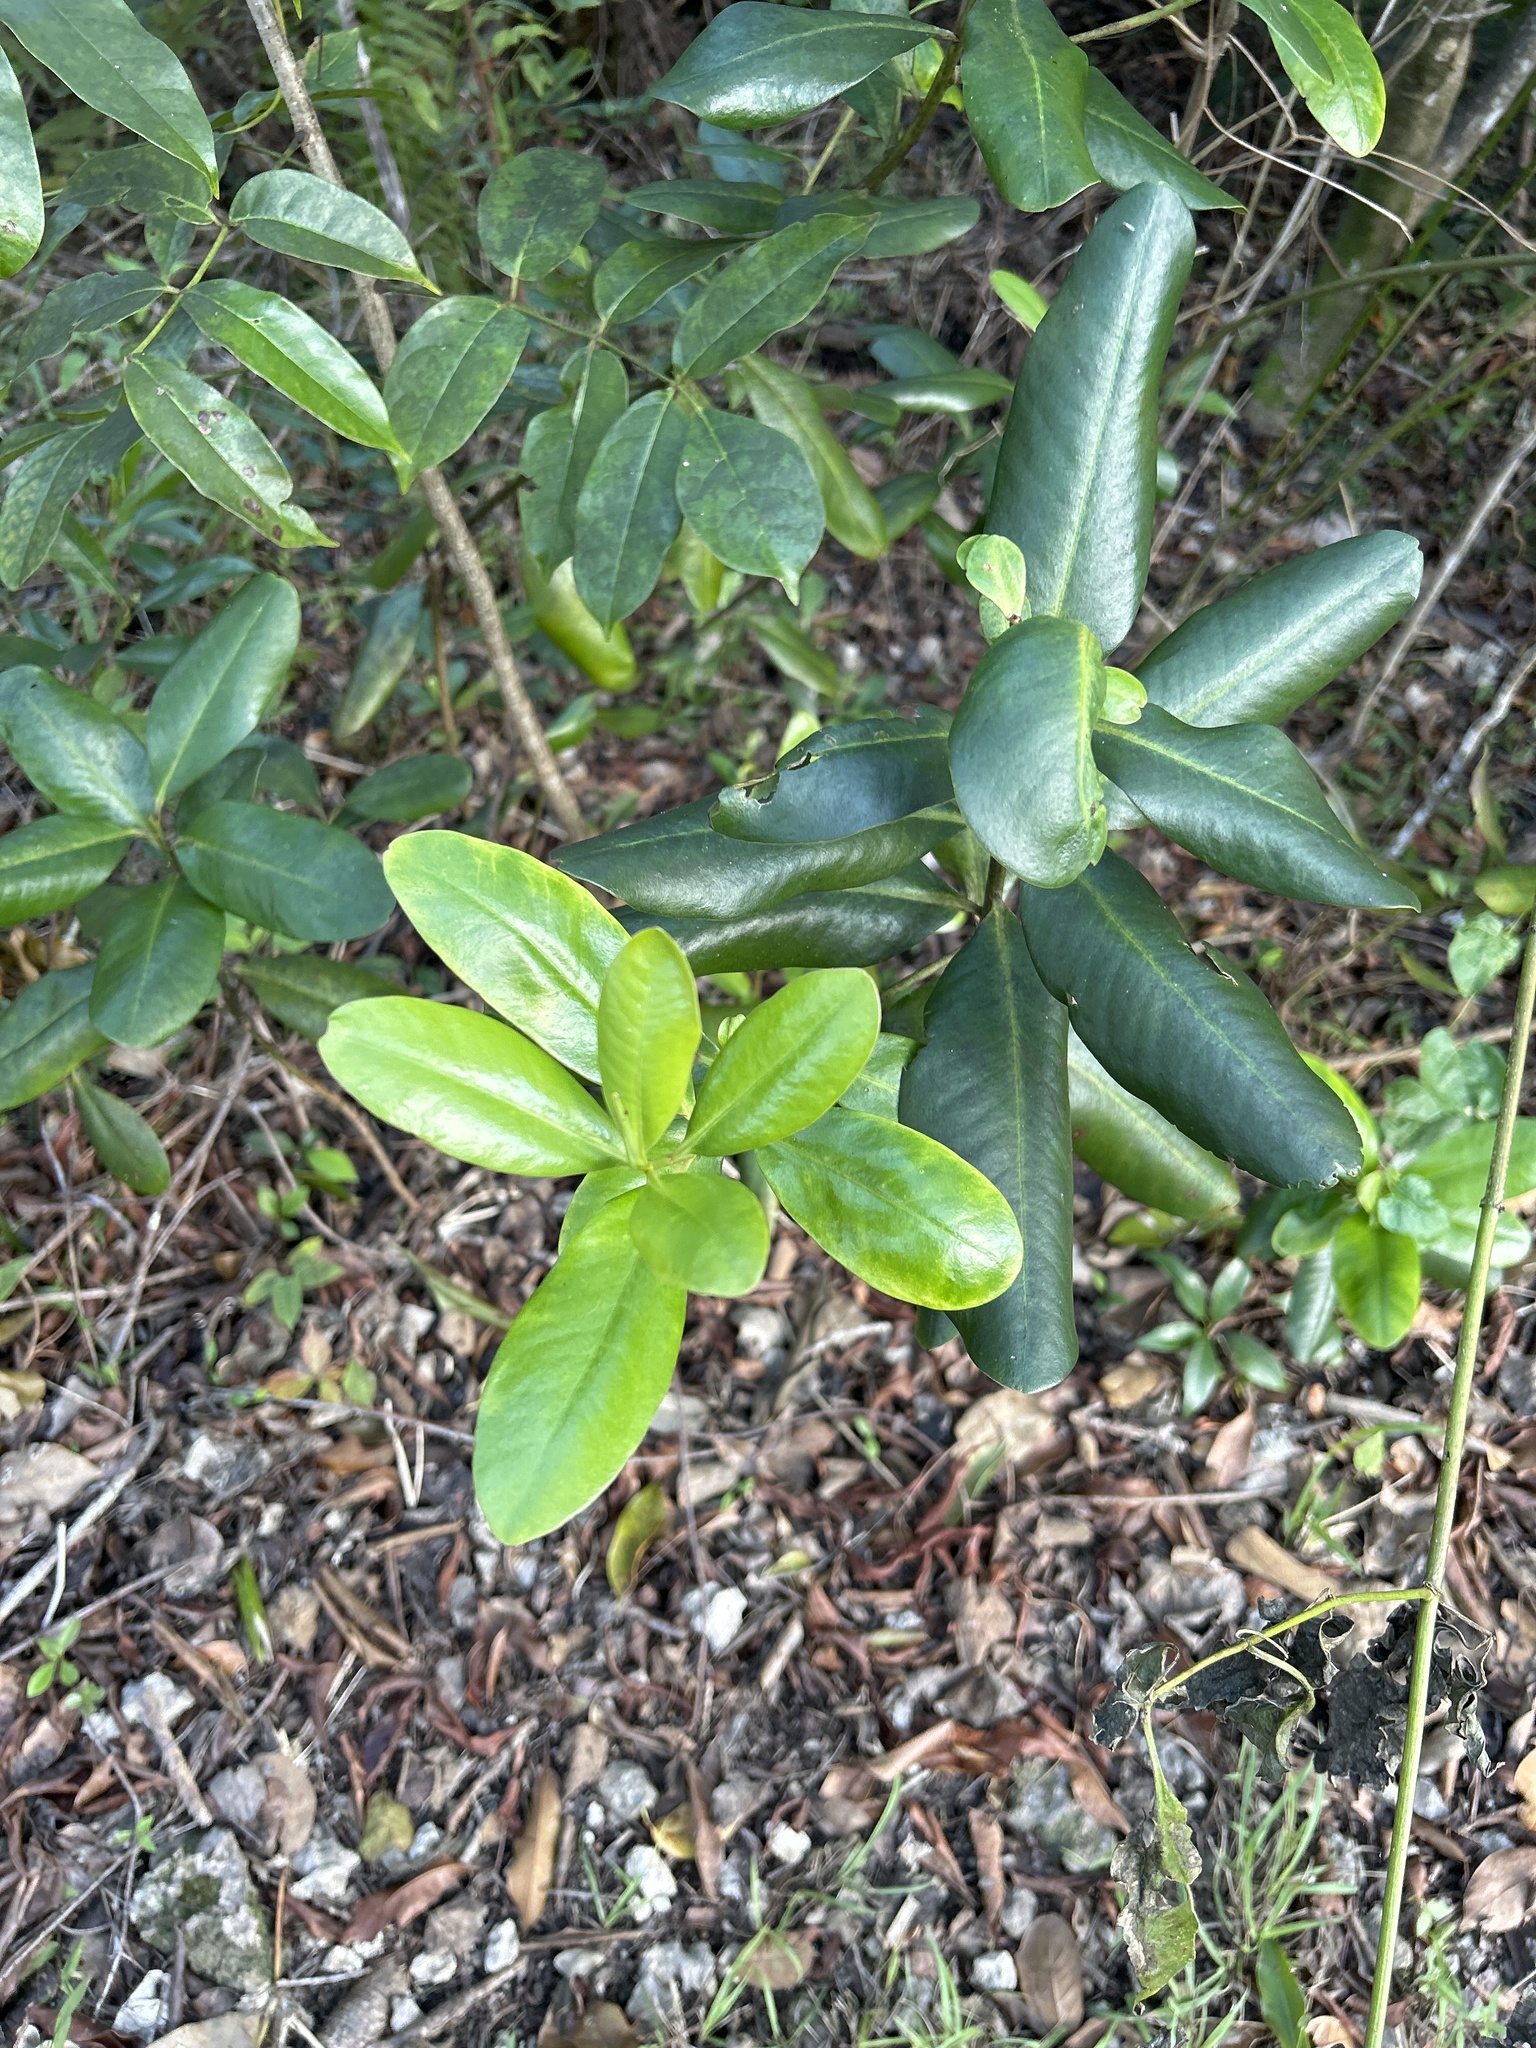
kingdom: Plantae
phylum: Tracheophyta
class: Magnoliopsida
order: Ericales
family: Primulaceae
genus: Myrsine
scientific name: Myrsine floridana
